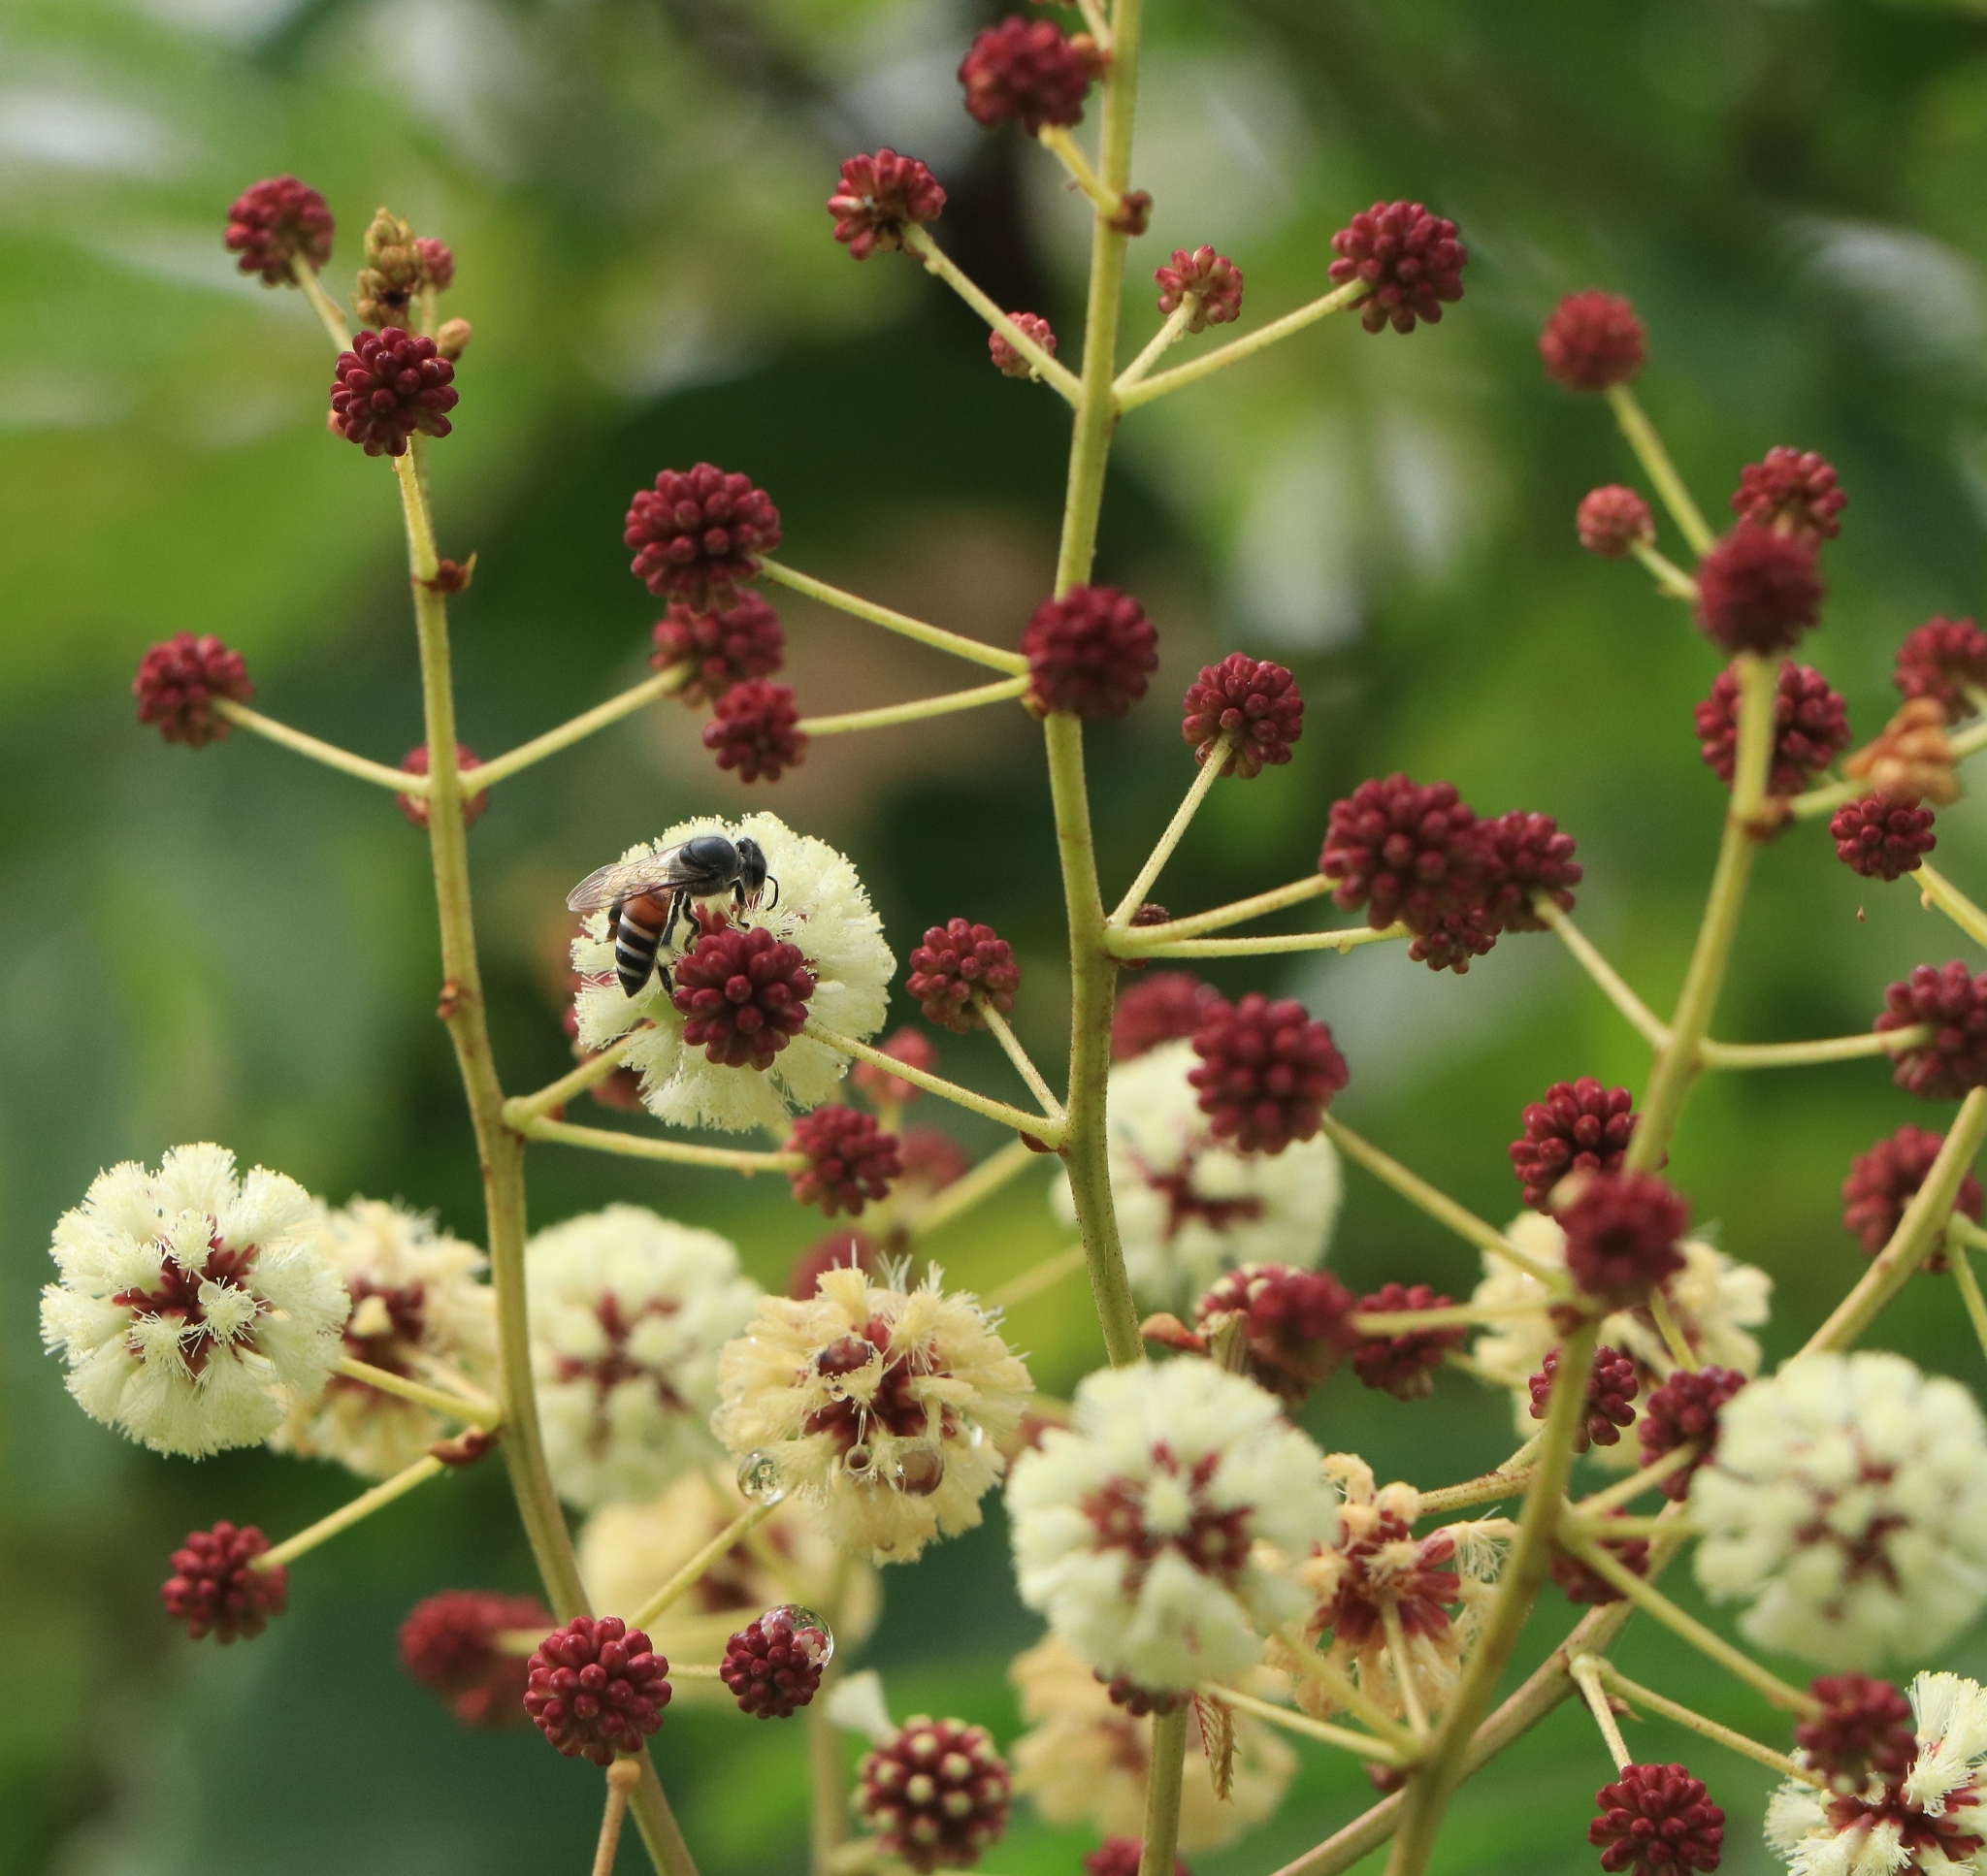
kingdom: Plantae
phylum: Tracheophyta
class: Magnoliopsida
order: Fabales
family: Fabaceae
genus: Senegalia
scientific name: Senegalia merrillii
